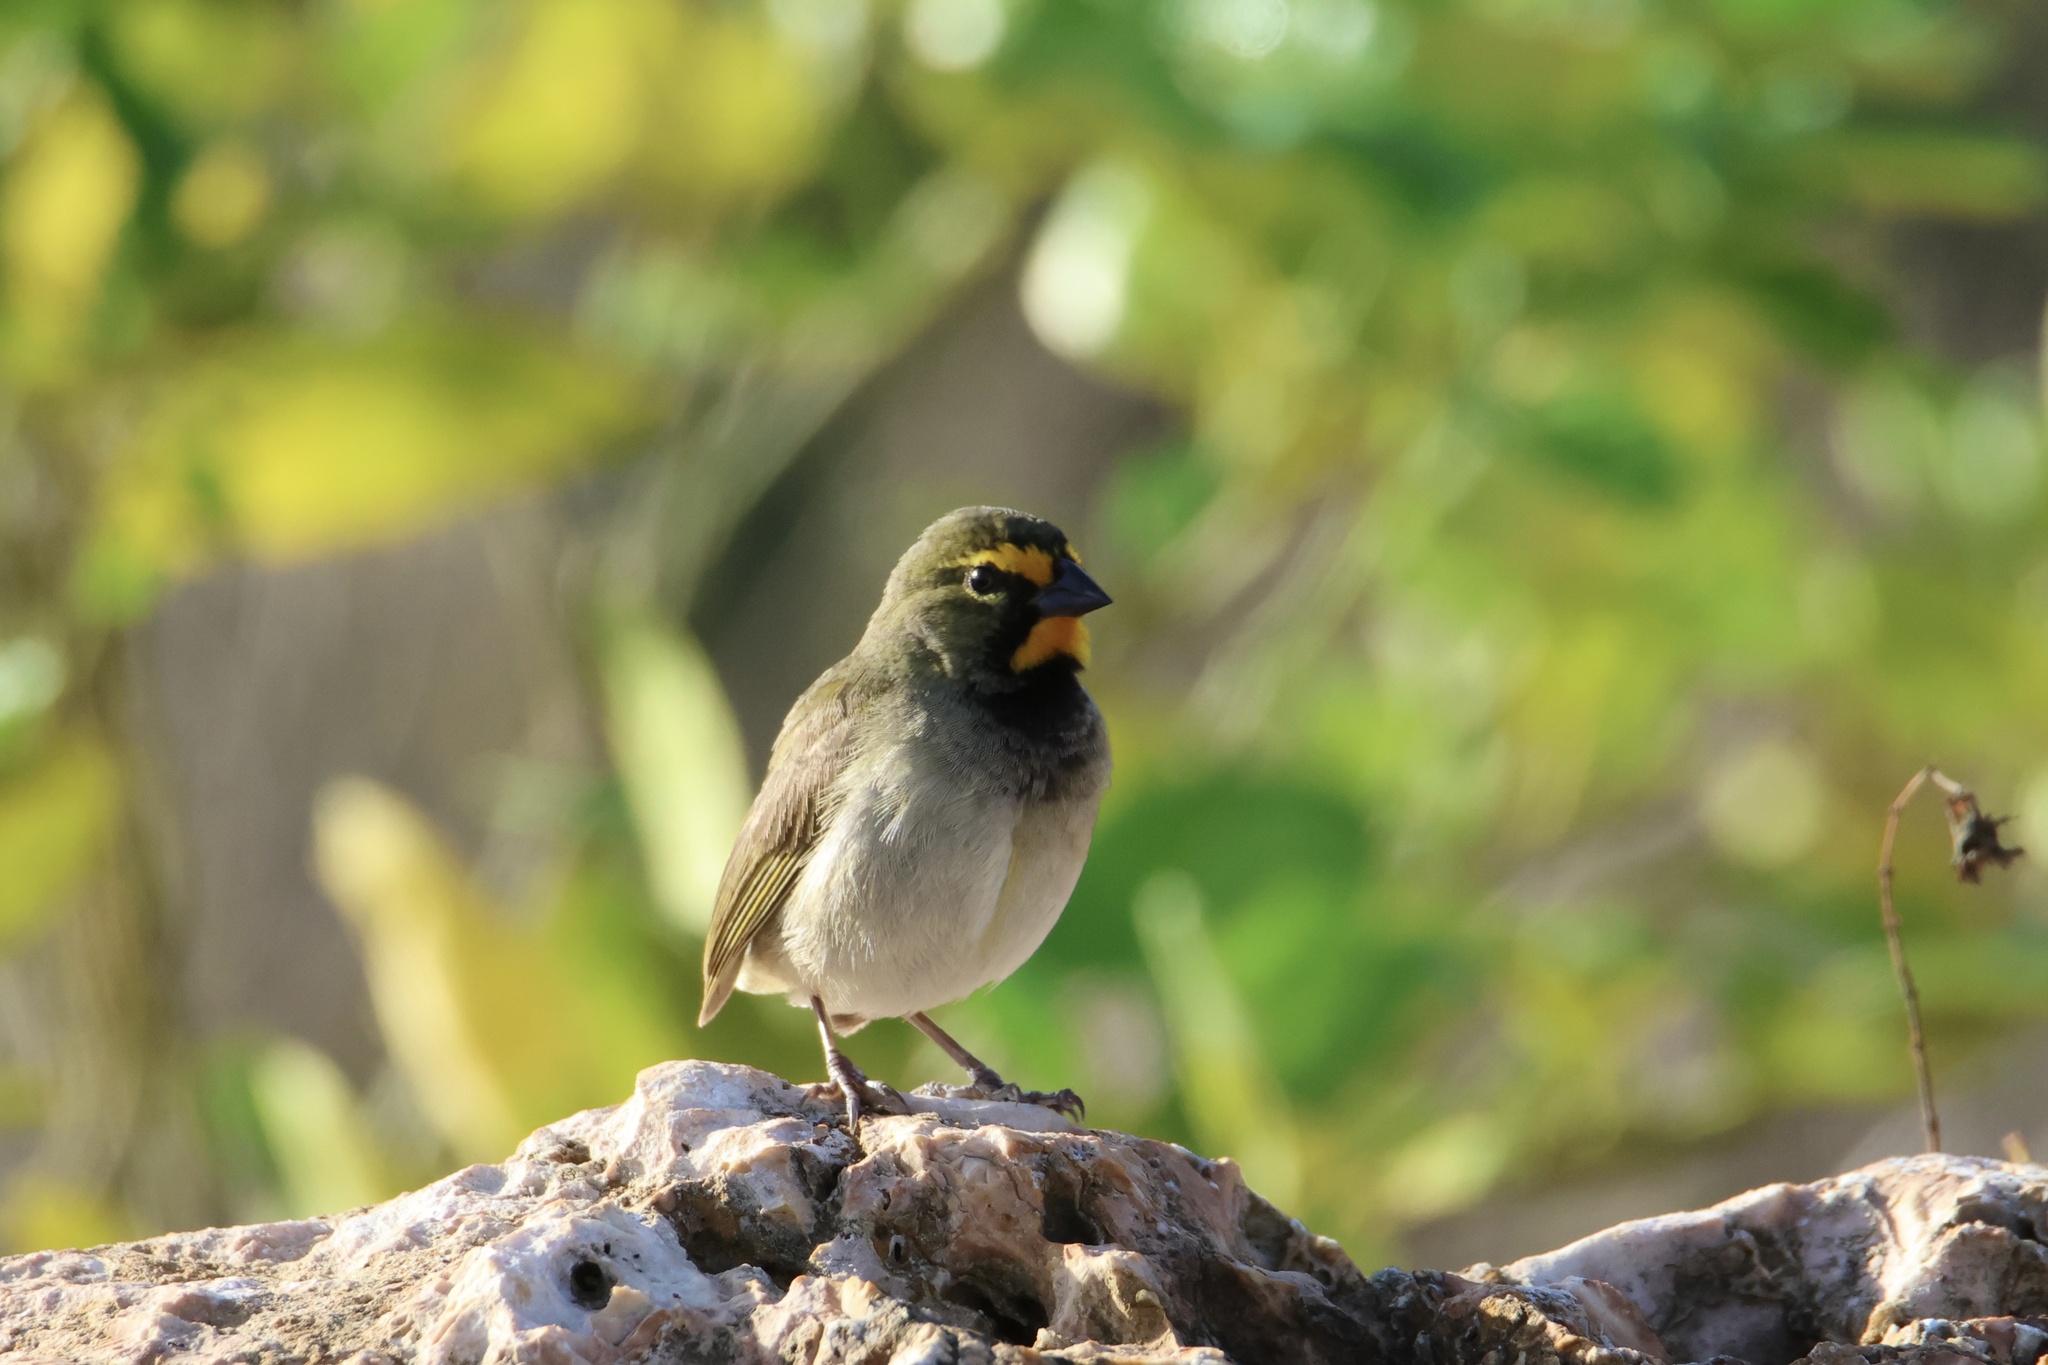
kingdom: Animalia
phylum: Chordata
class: Aves
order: Passeriformes
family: Thraupidae
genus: Tiaris
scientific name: Tiaris olivaceus
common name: Yellow-faced grassquit
